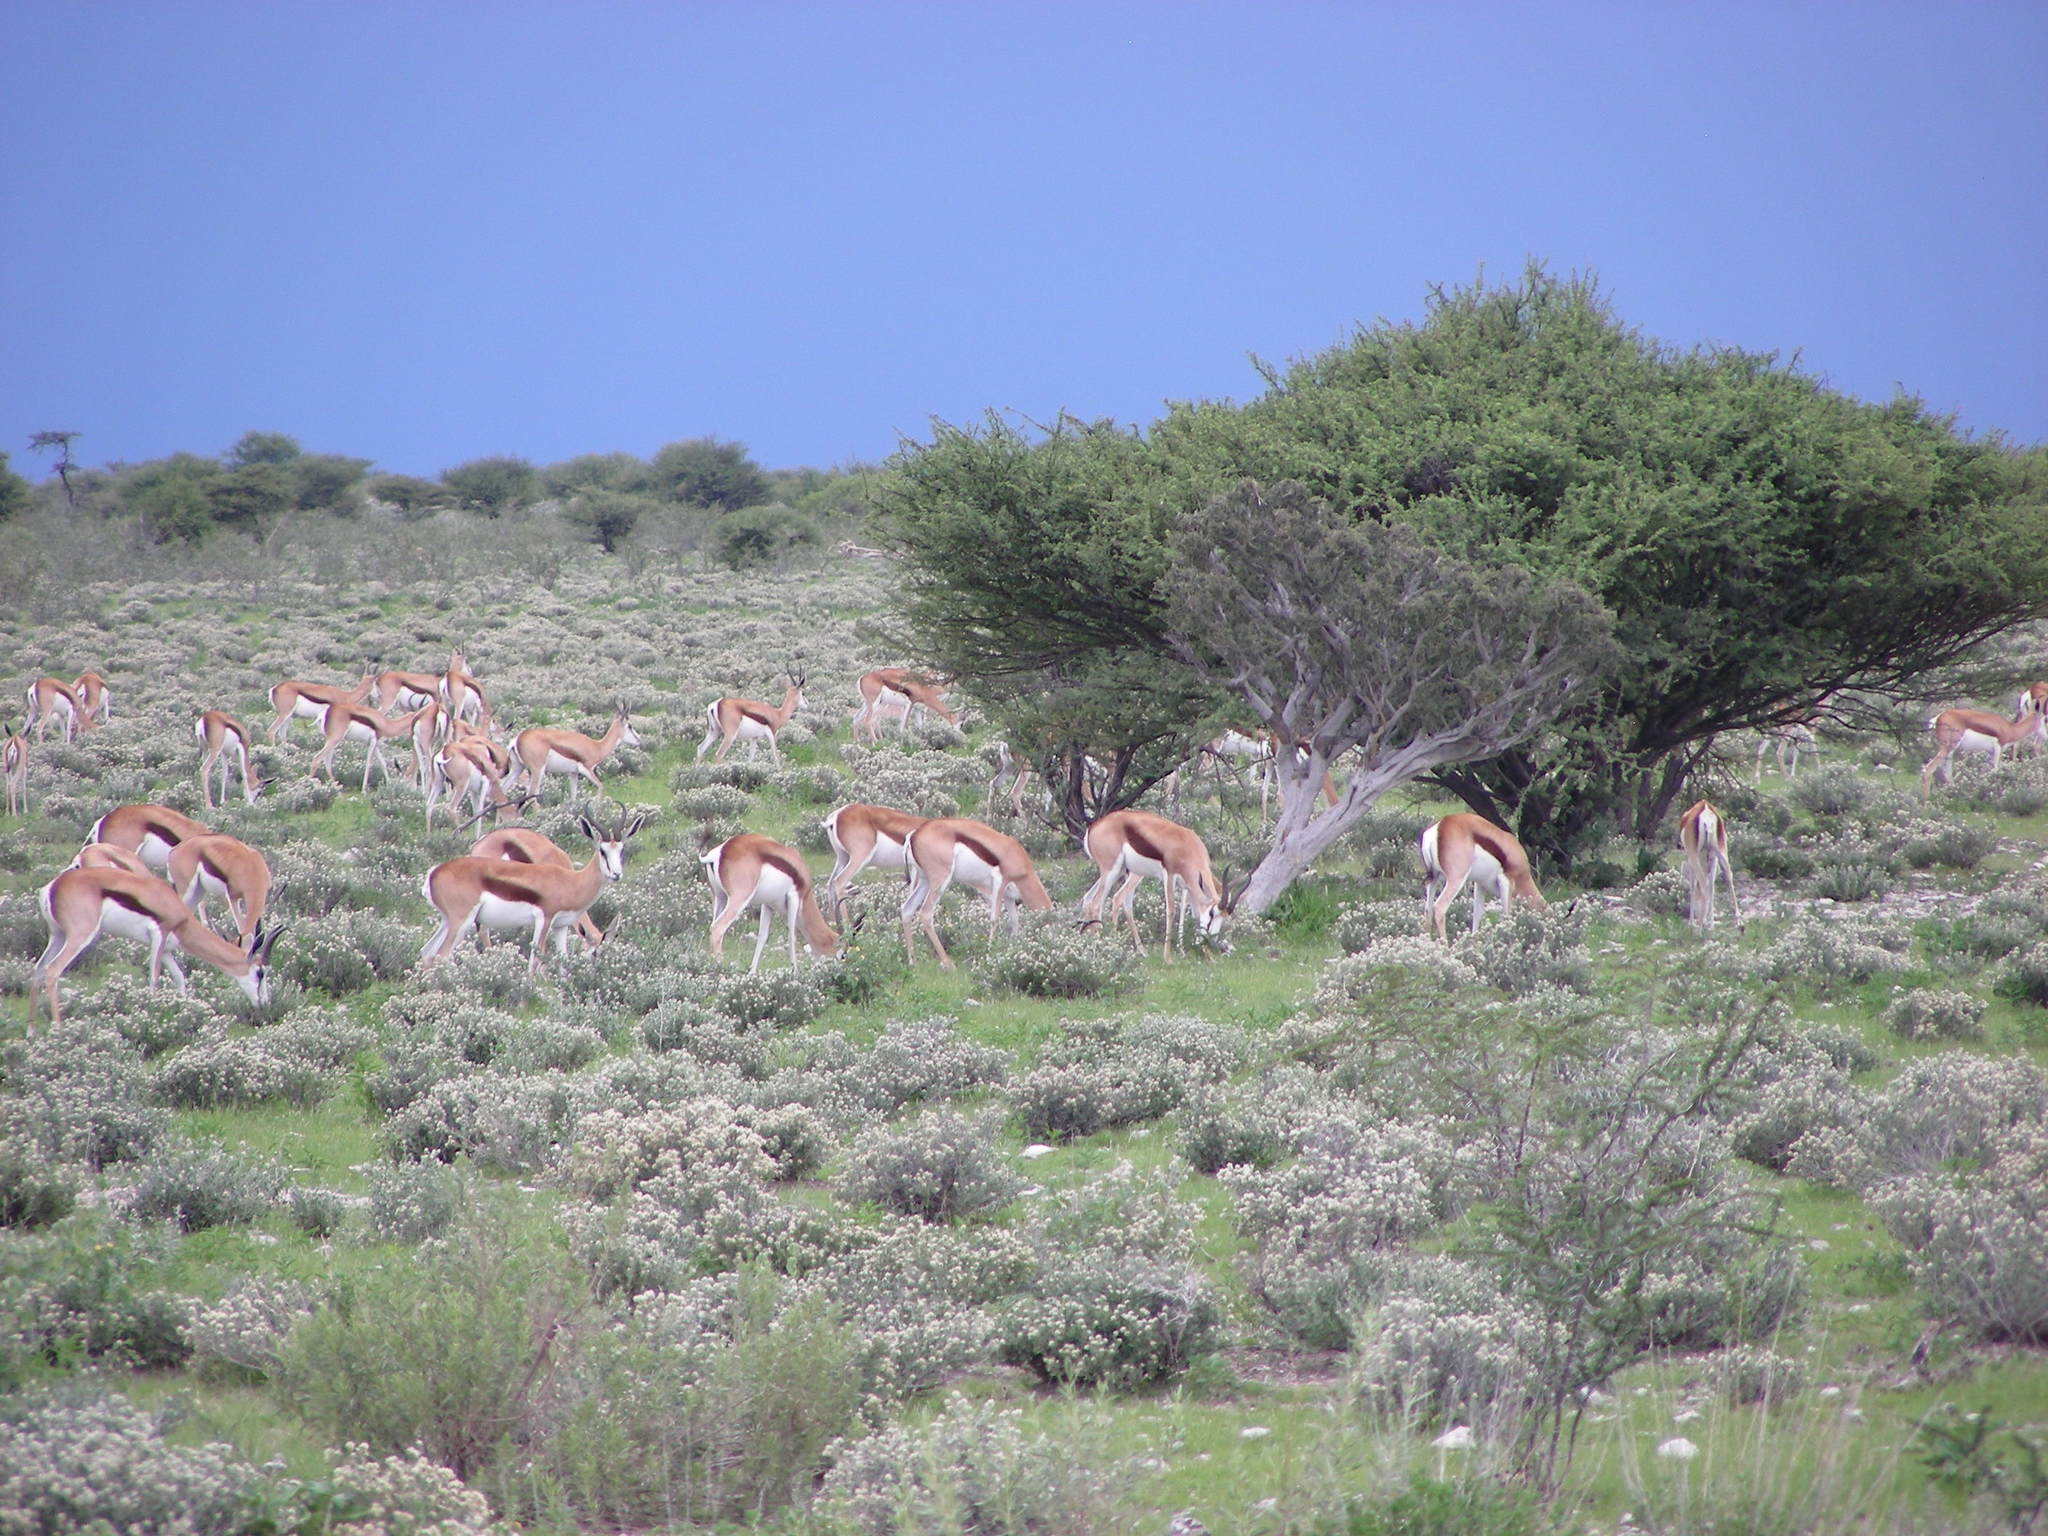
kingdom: Animalia
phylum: Chordata
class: Mammalia
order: Artiodactyla
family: Bovidae
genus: Antidorcas
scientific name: Antidorcas marsupialis
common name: Springbok
